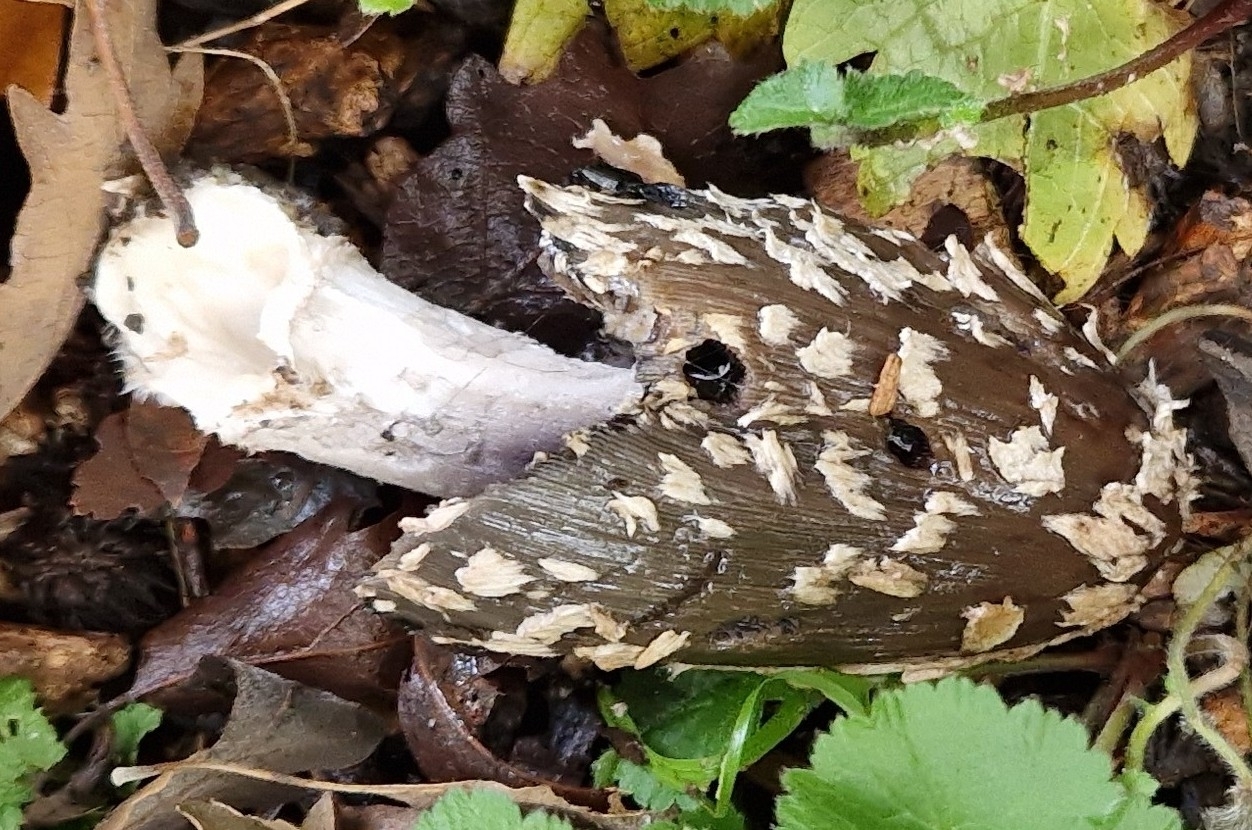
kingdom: Fungi
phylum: Basidiomycota
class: Agaricomycetes
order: Agaricales
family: Psathyrellaceae
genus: Coprinopsis
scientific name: Coprinopsis picacea
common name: Magpie inkcap
